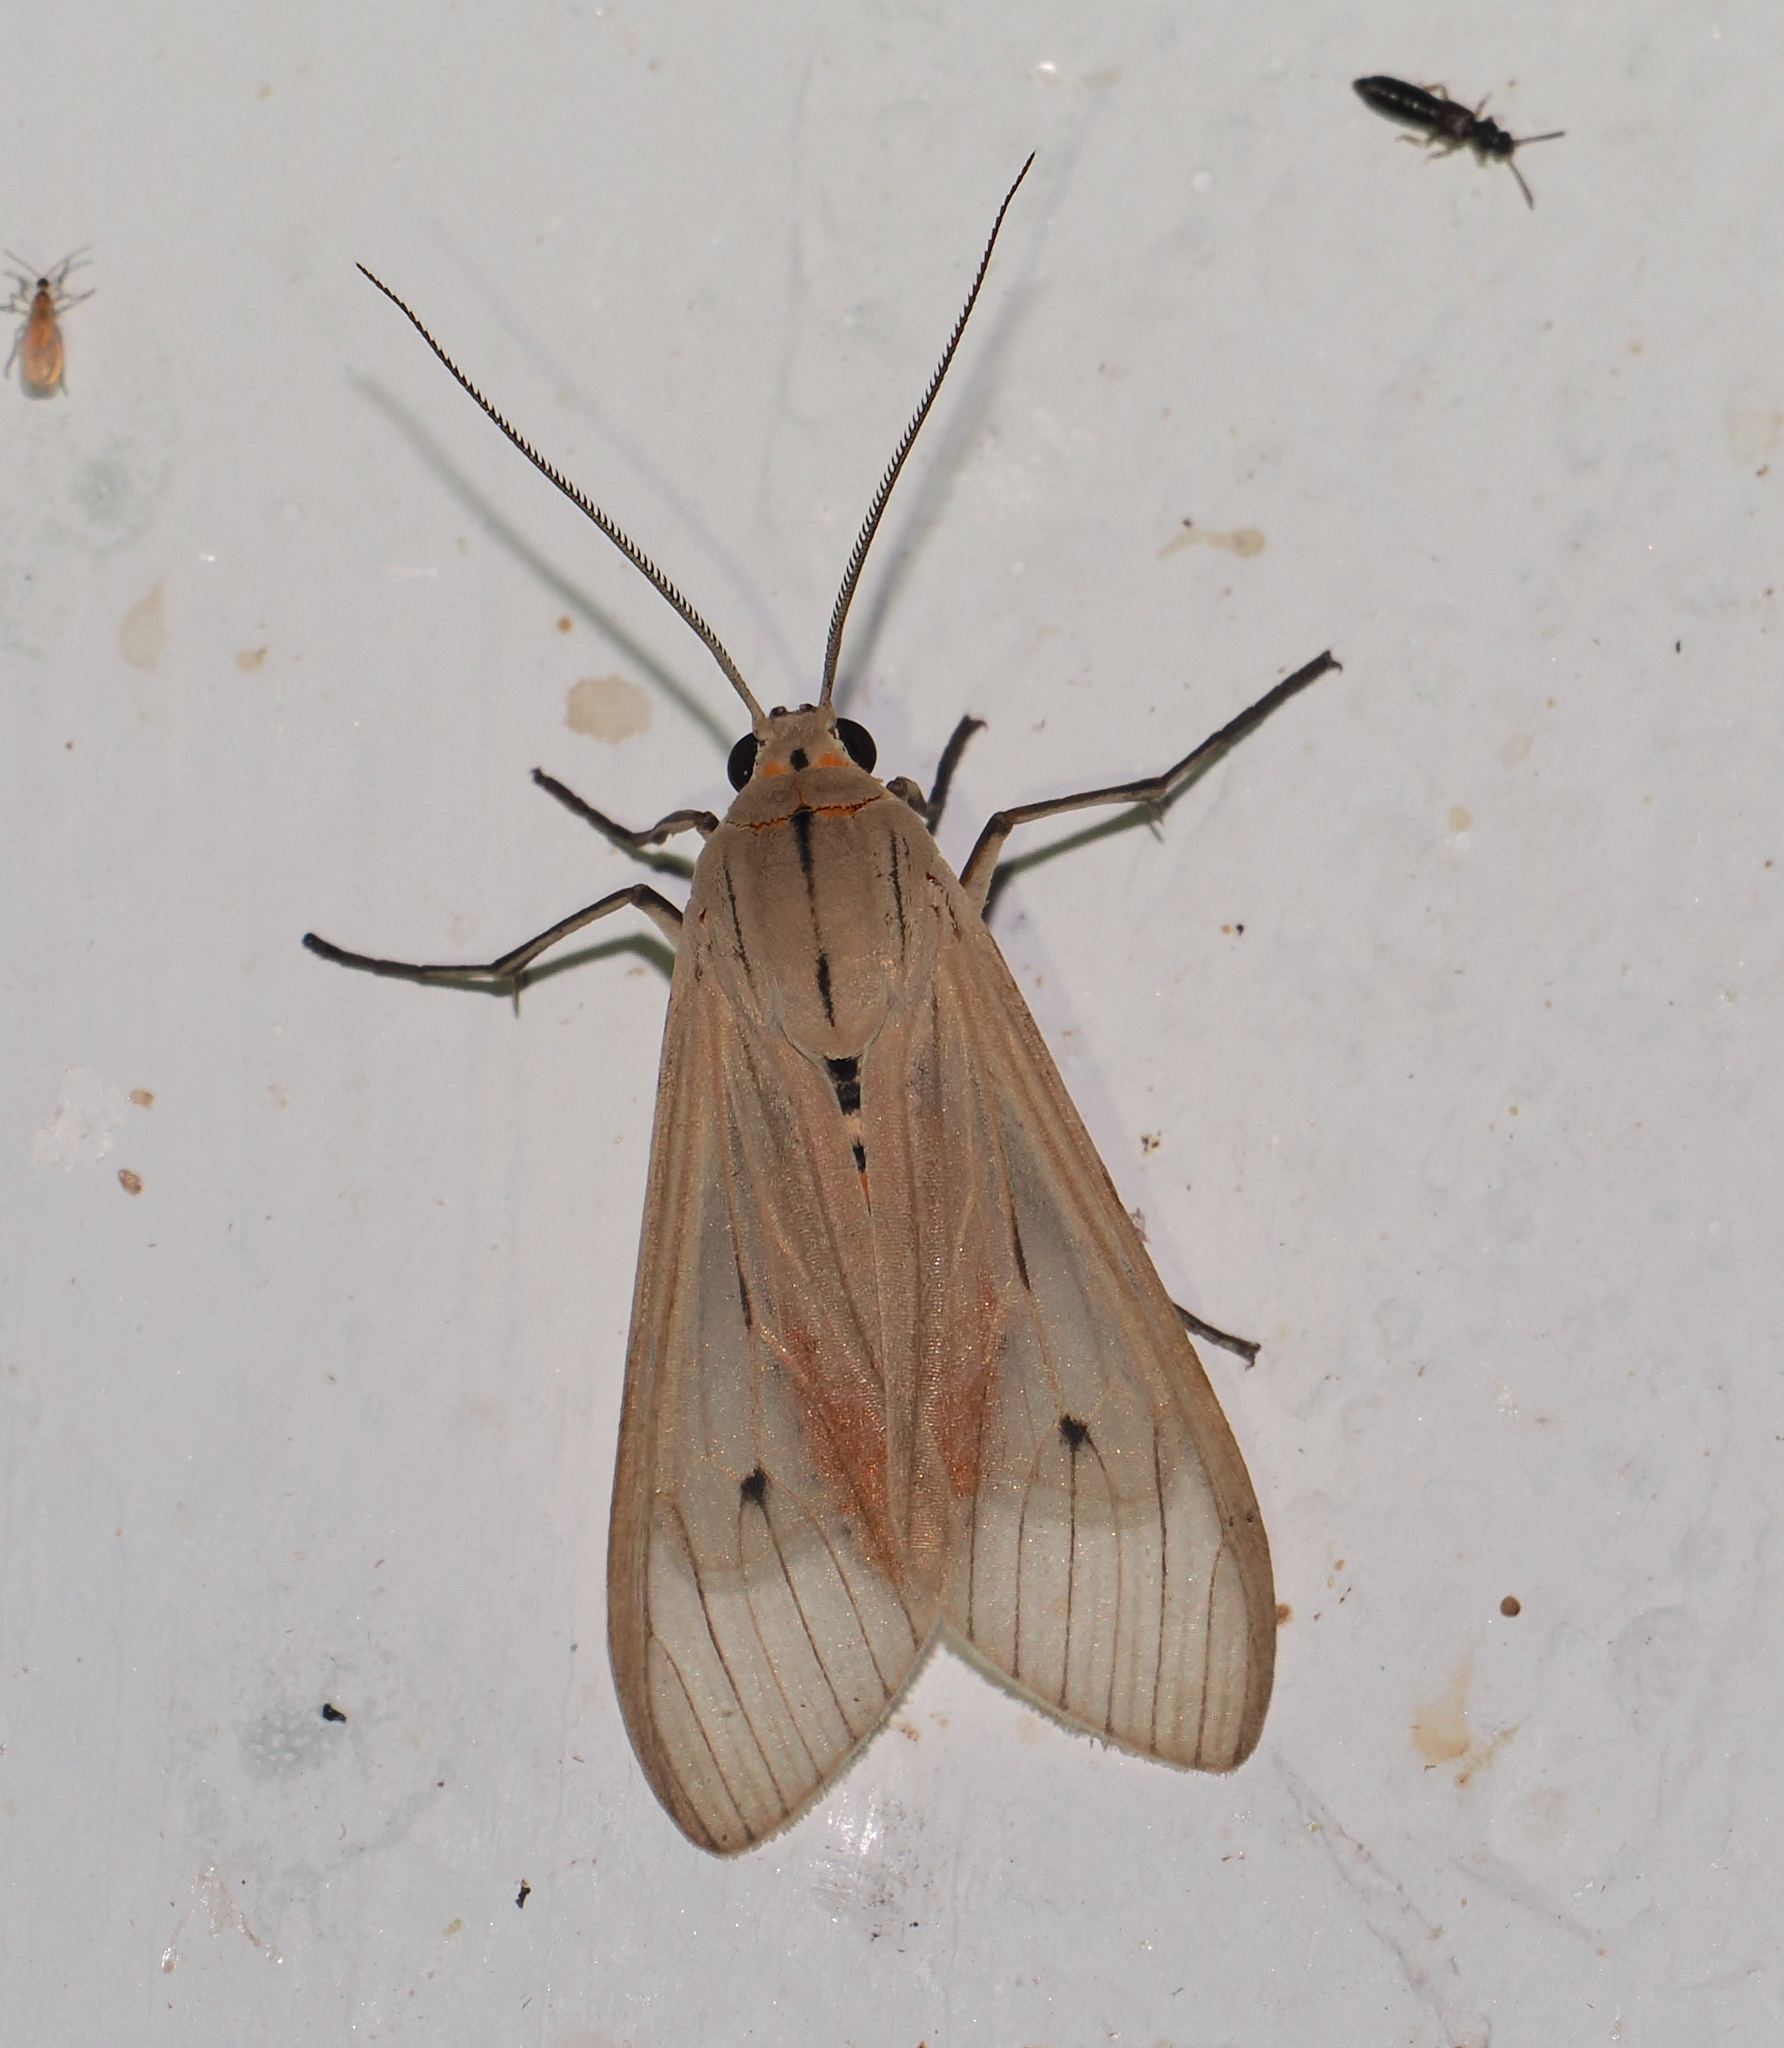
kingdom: Animalia
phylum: Arthropoda
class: Insecta
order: Lepidoptera
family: Erebidae
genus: Arctagyrta
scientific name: Arctagyrta Agaraea semivitrea
